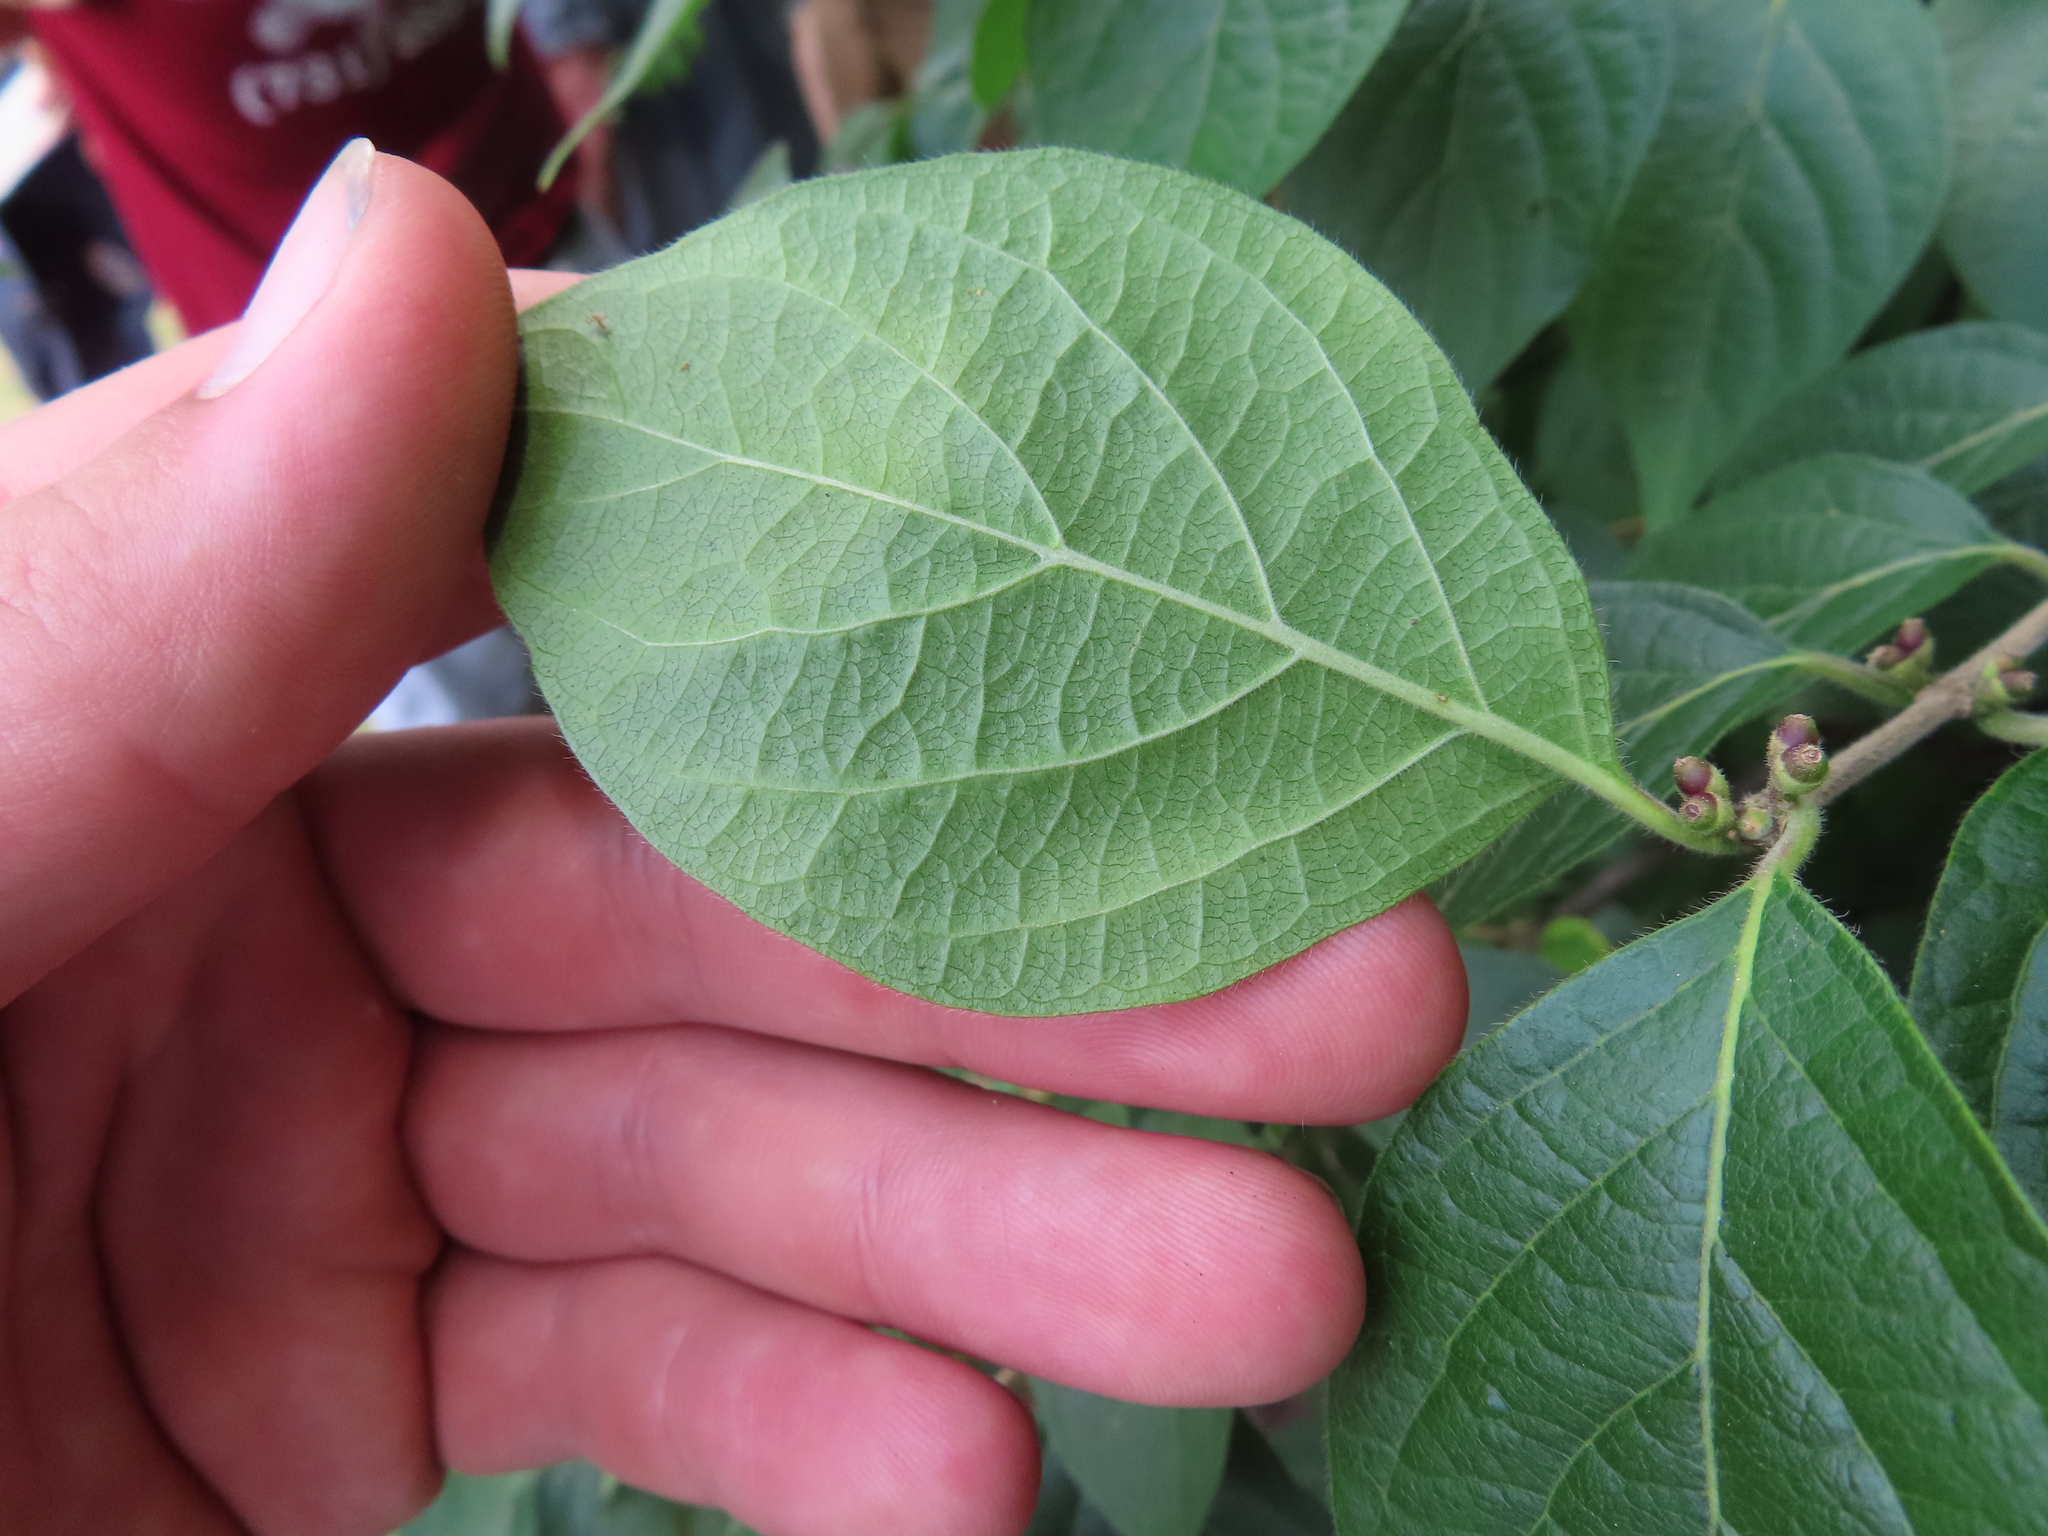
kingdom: Plantae
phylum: Tracheophyta
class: Magnoliopsida
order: Dipsacales
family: Caprifoliaceae
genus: Lonicera
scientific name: Lonicera maackii
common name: Amur honeysuckle
